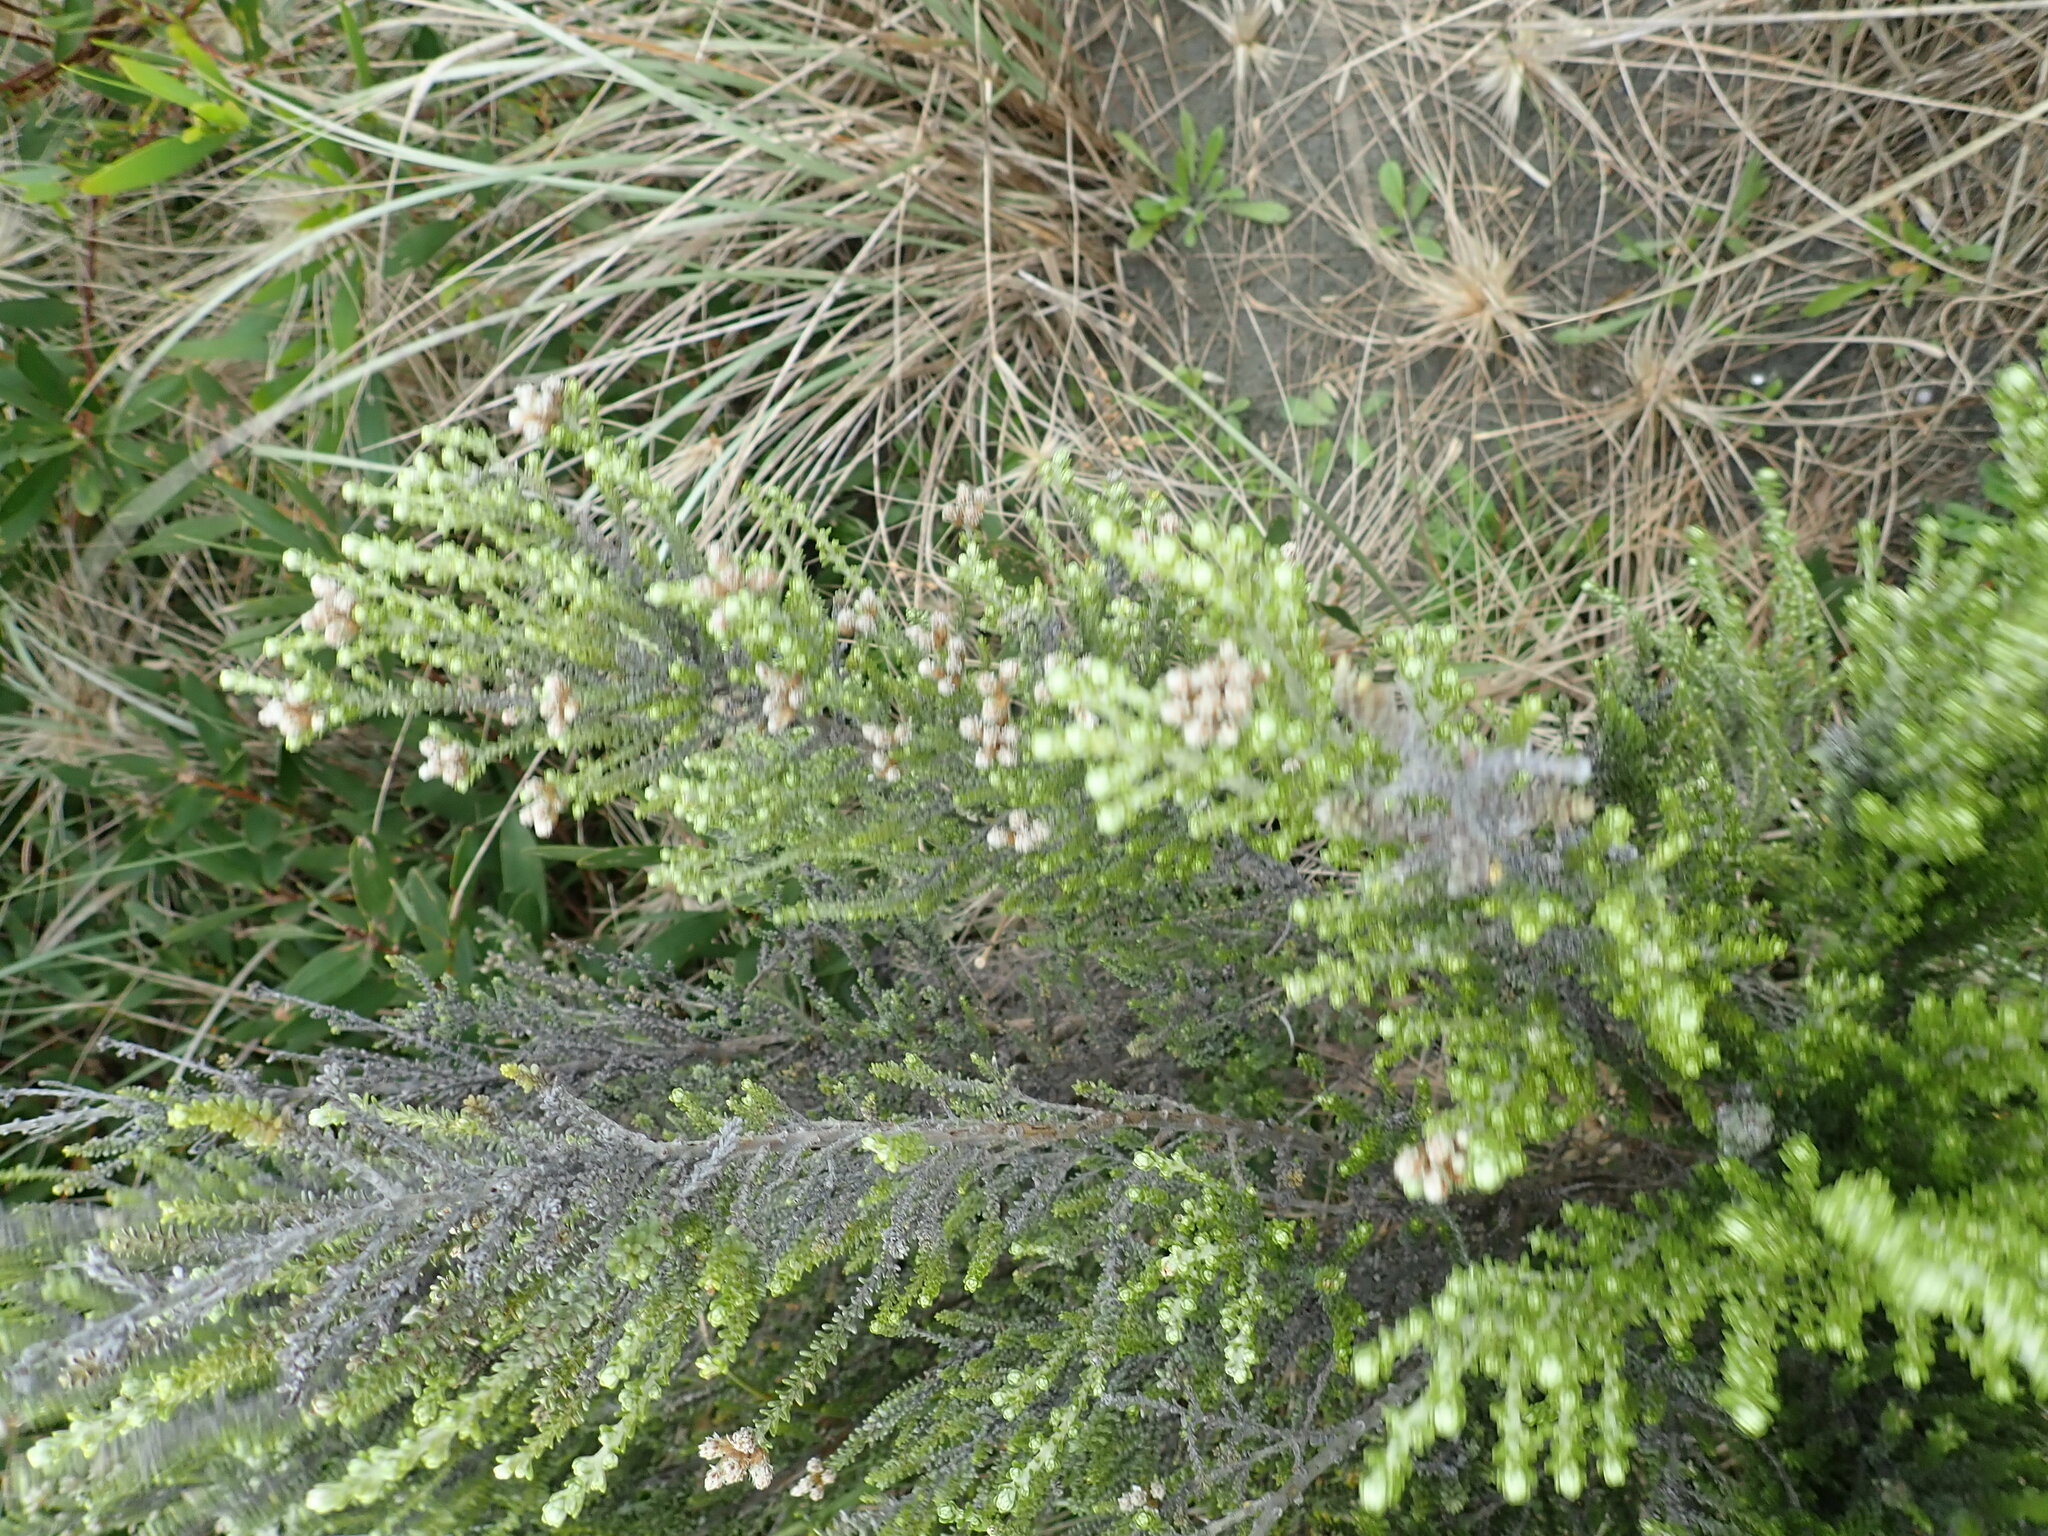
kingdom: Plantae
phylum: Tracheophyta
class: Magnoliopsida
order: Asterales
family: Asteraceae
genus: Ozothamnus
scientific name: Ozothamnus leptophyllus
